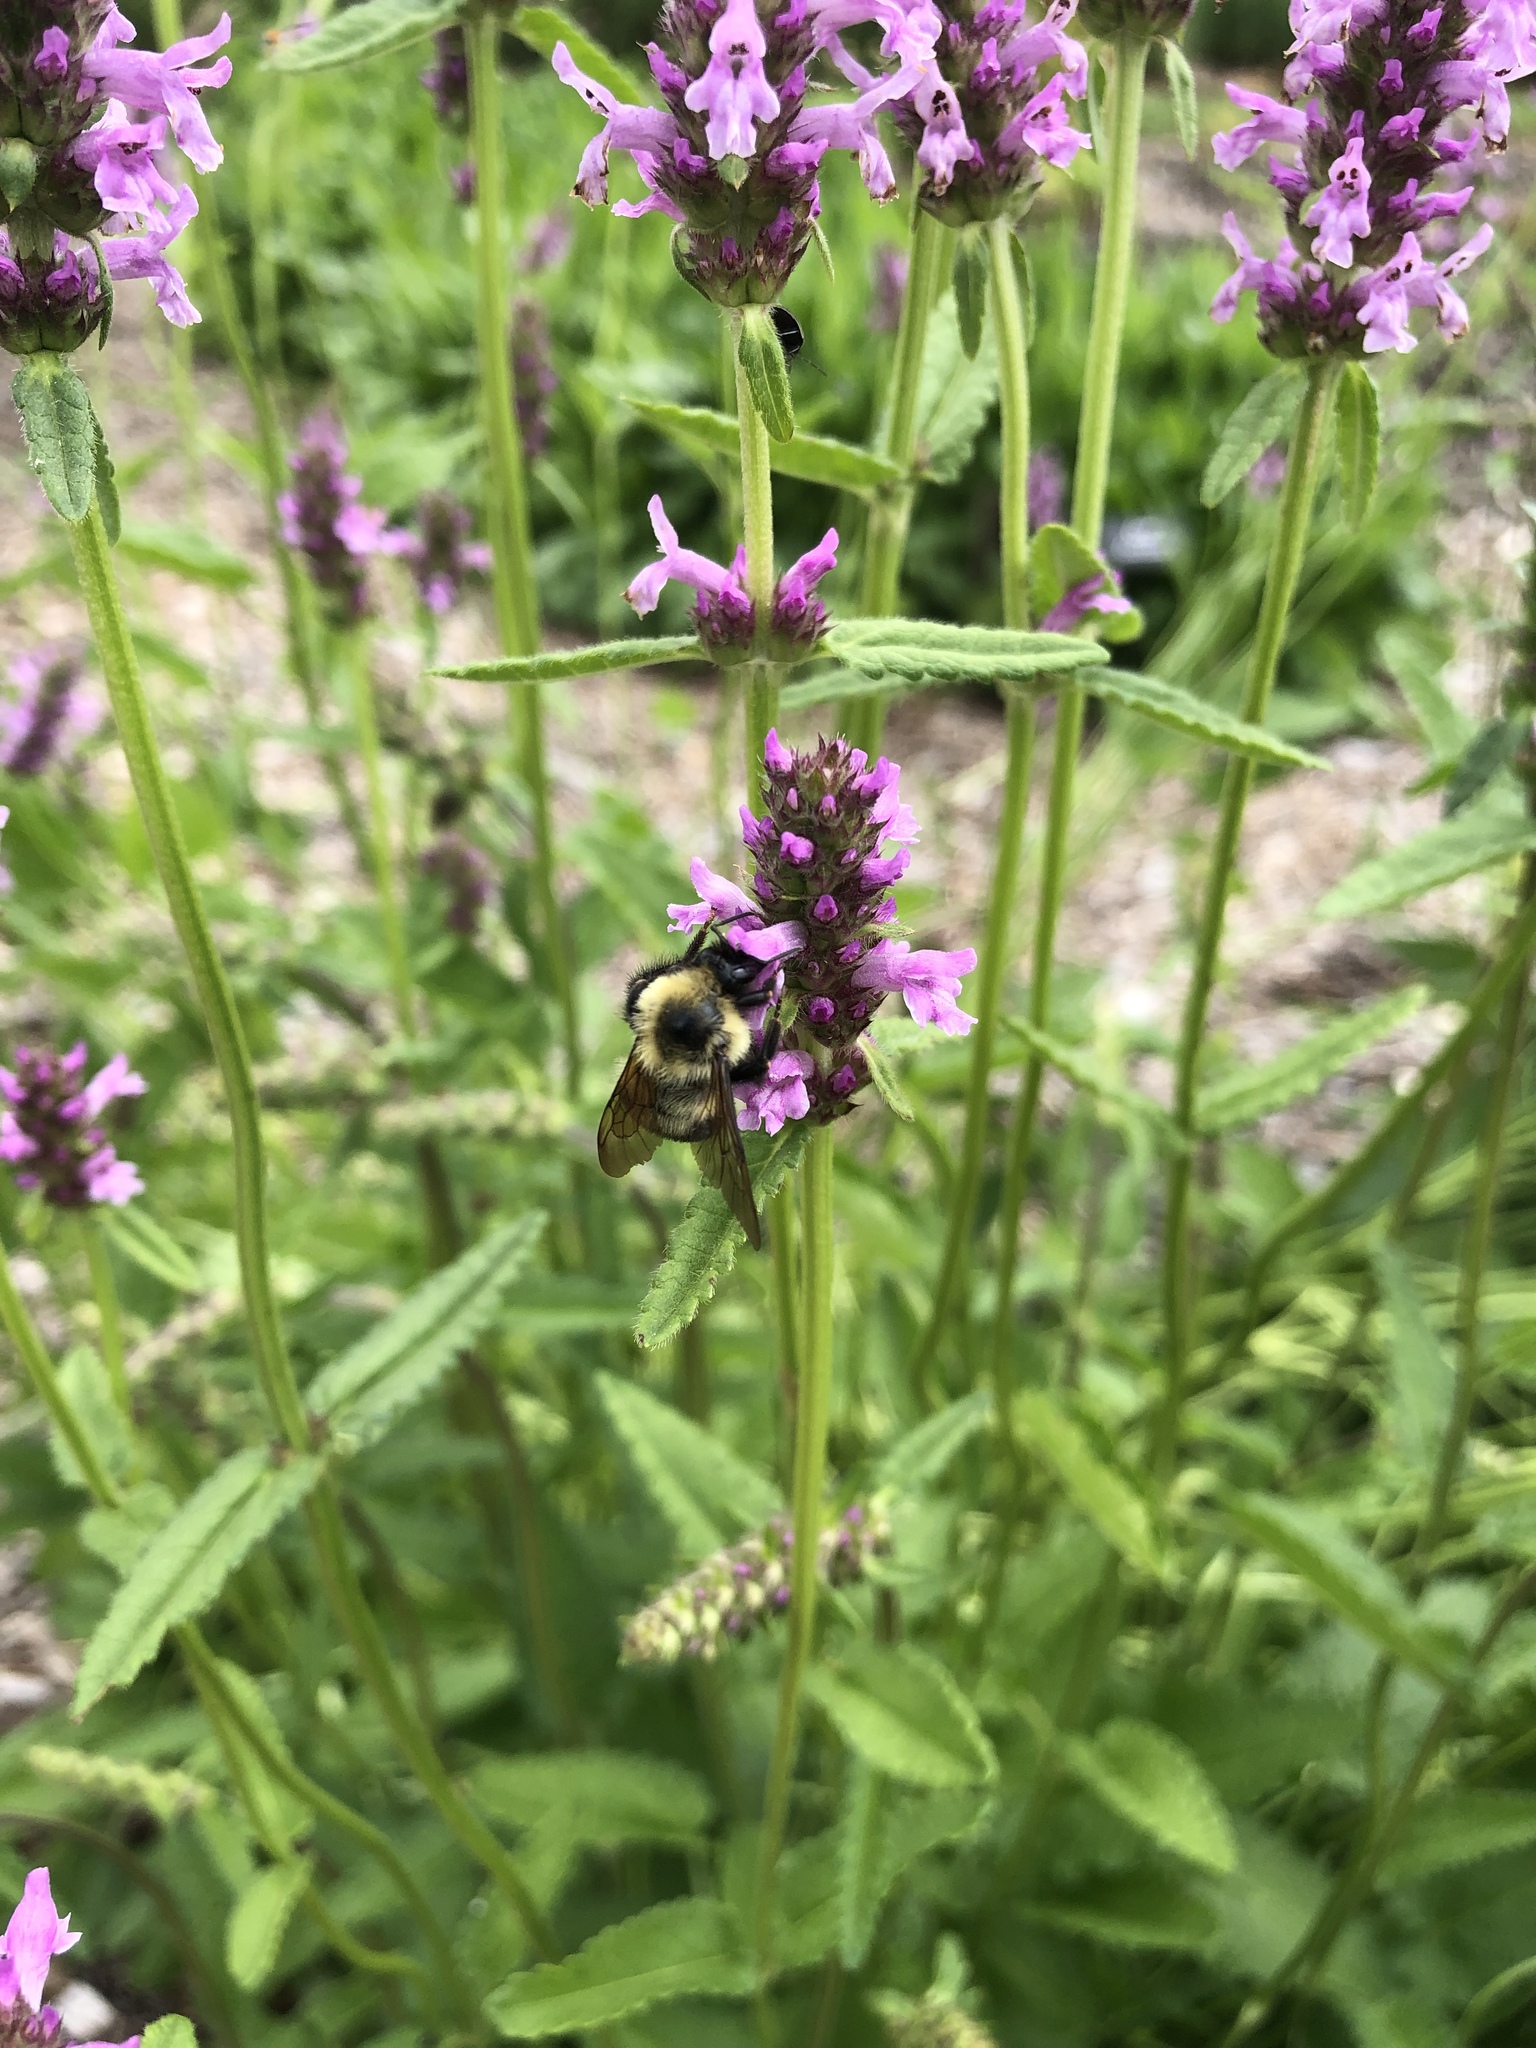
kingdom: Animalia
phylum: Arthropoda
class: Insecta
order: Hymenoptera
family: Apidae
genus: Bombus
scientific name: Bombus bimaculatus
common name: Two-spotted bumble bee
